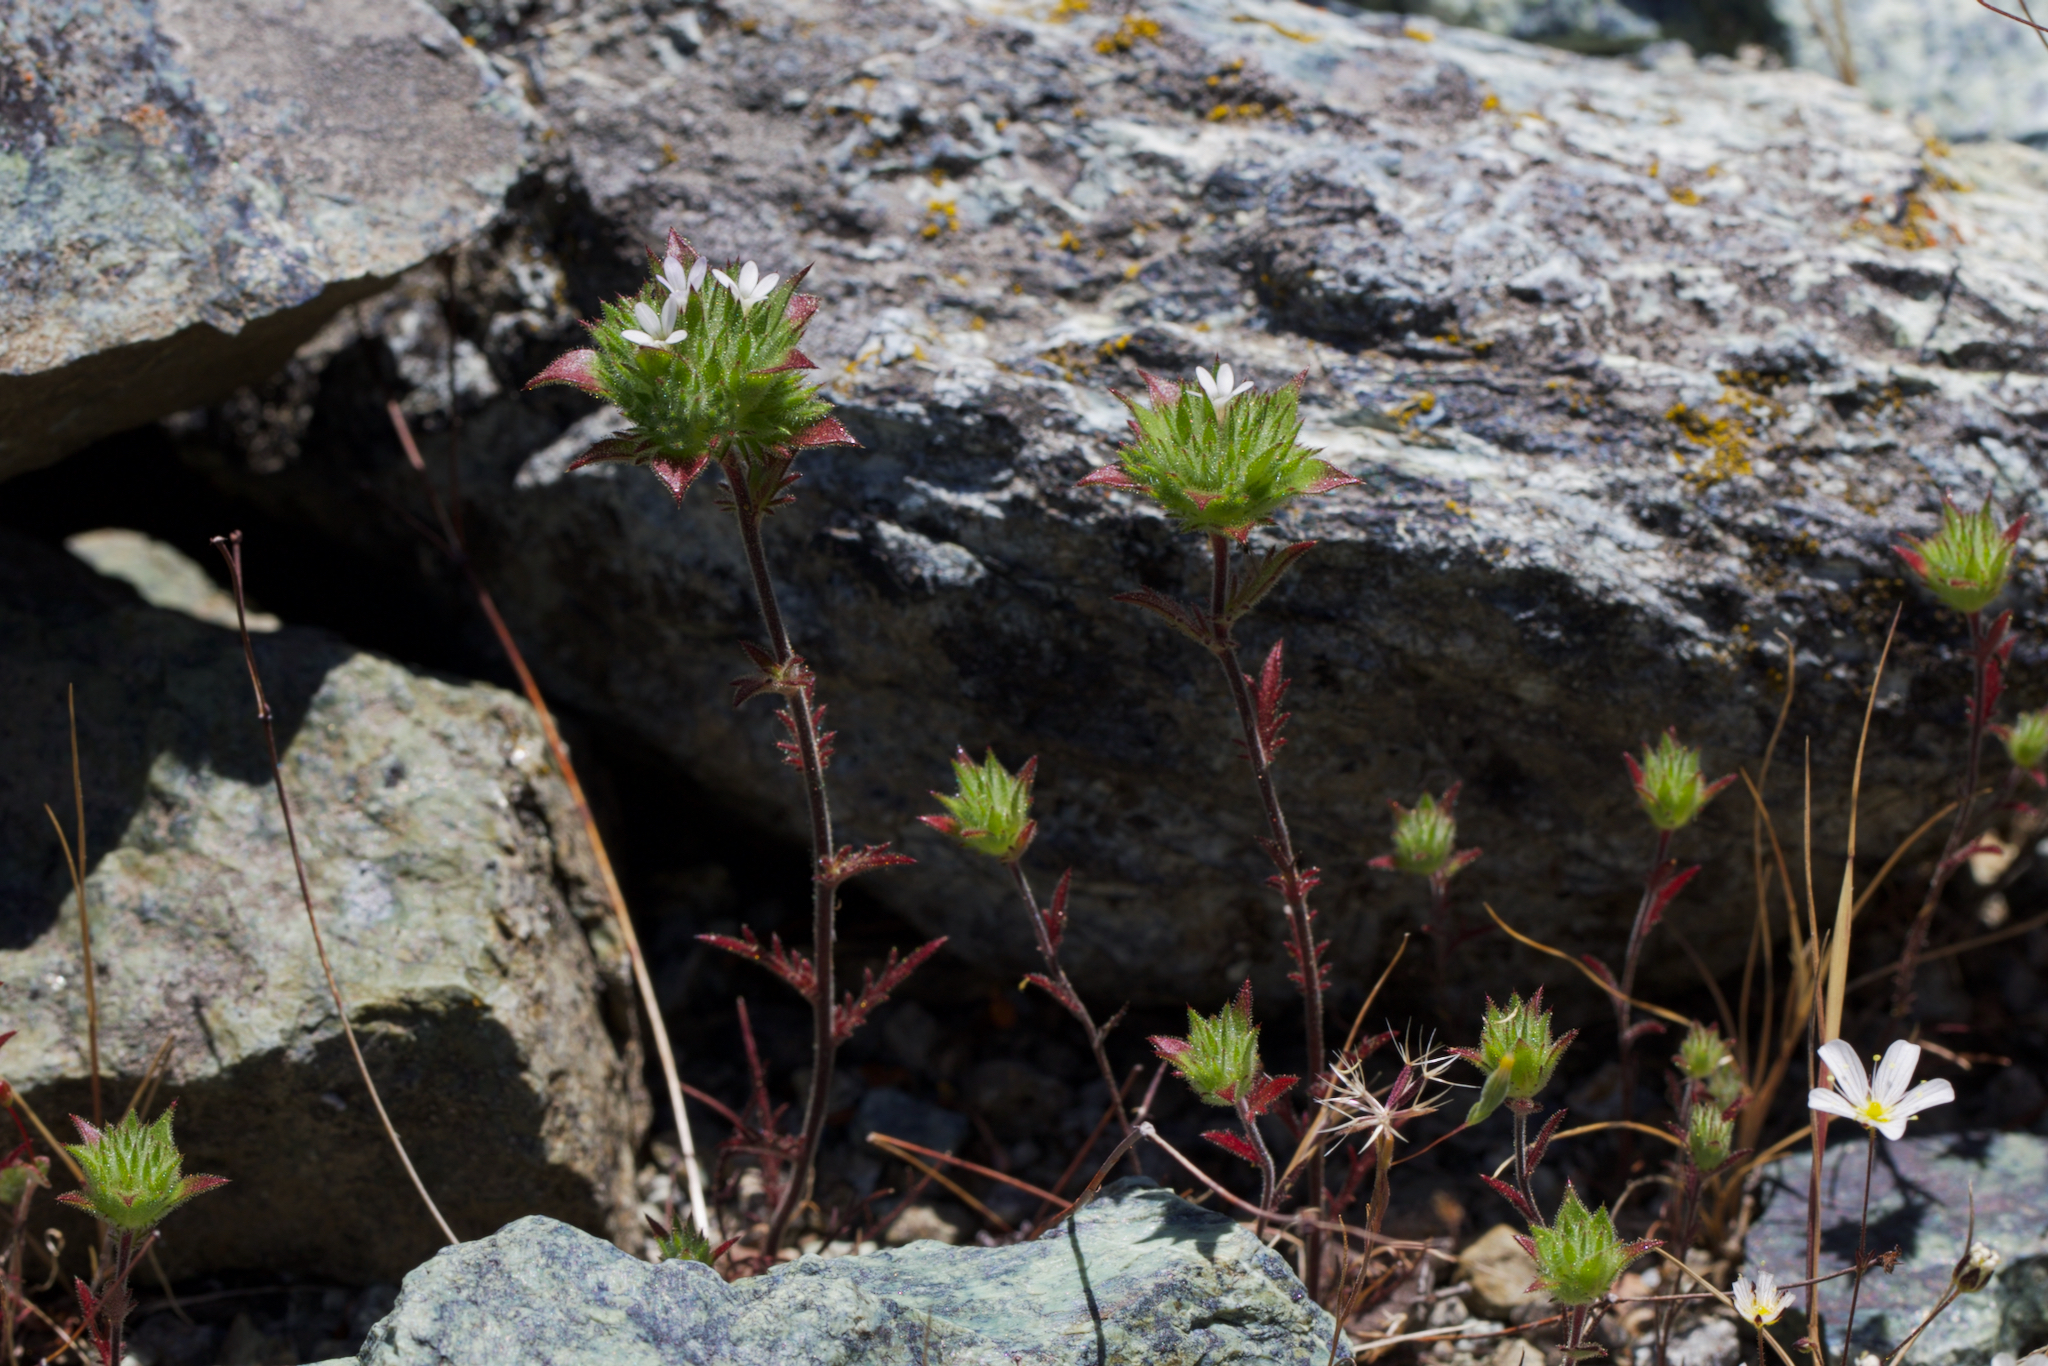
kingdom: Plantae
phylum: Tracheophyta
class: Magnoliopsida
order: Ericales
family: Polemoniaceae
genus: Navarretia
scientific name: Navarretia rosulata
